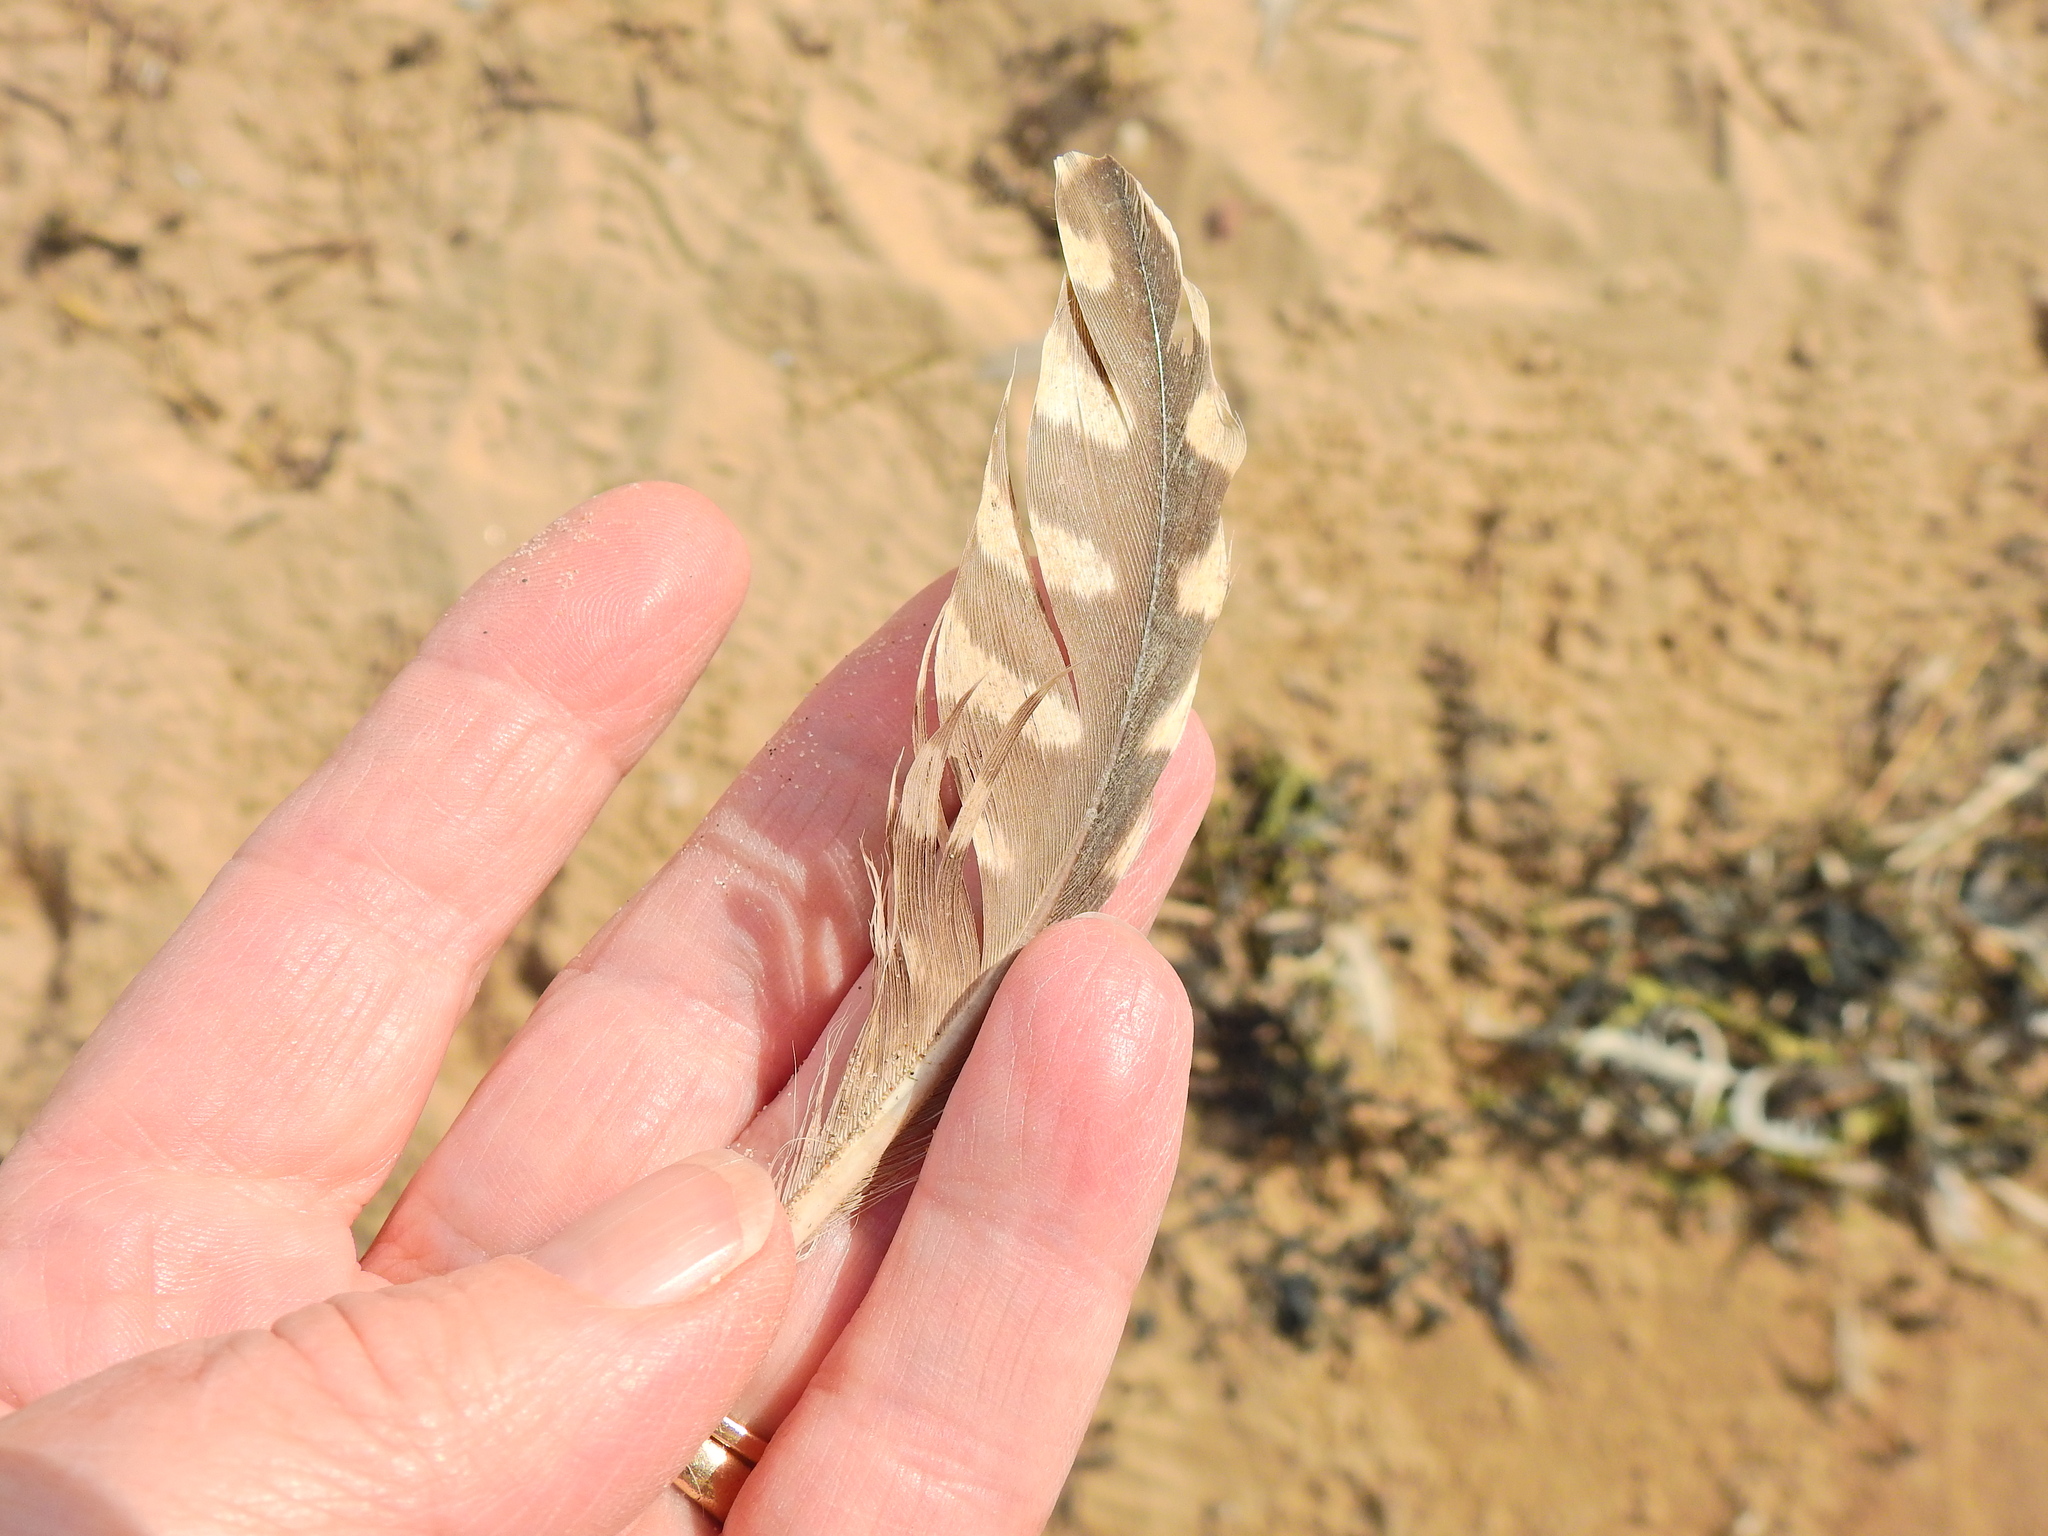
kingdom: Animalia
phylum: Chordata
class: Aves
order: Charadriiformes
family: Scolopacidae
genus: Numenius
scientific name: Numenius arquata
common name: Eurasian curlew
